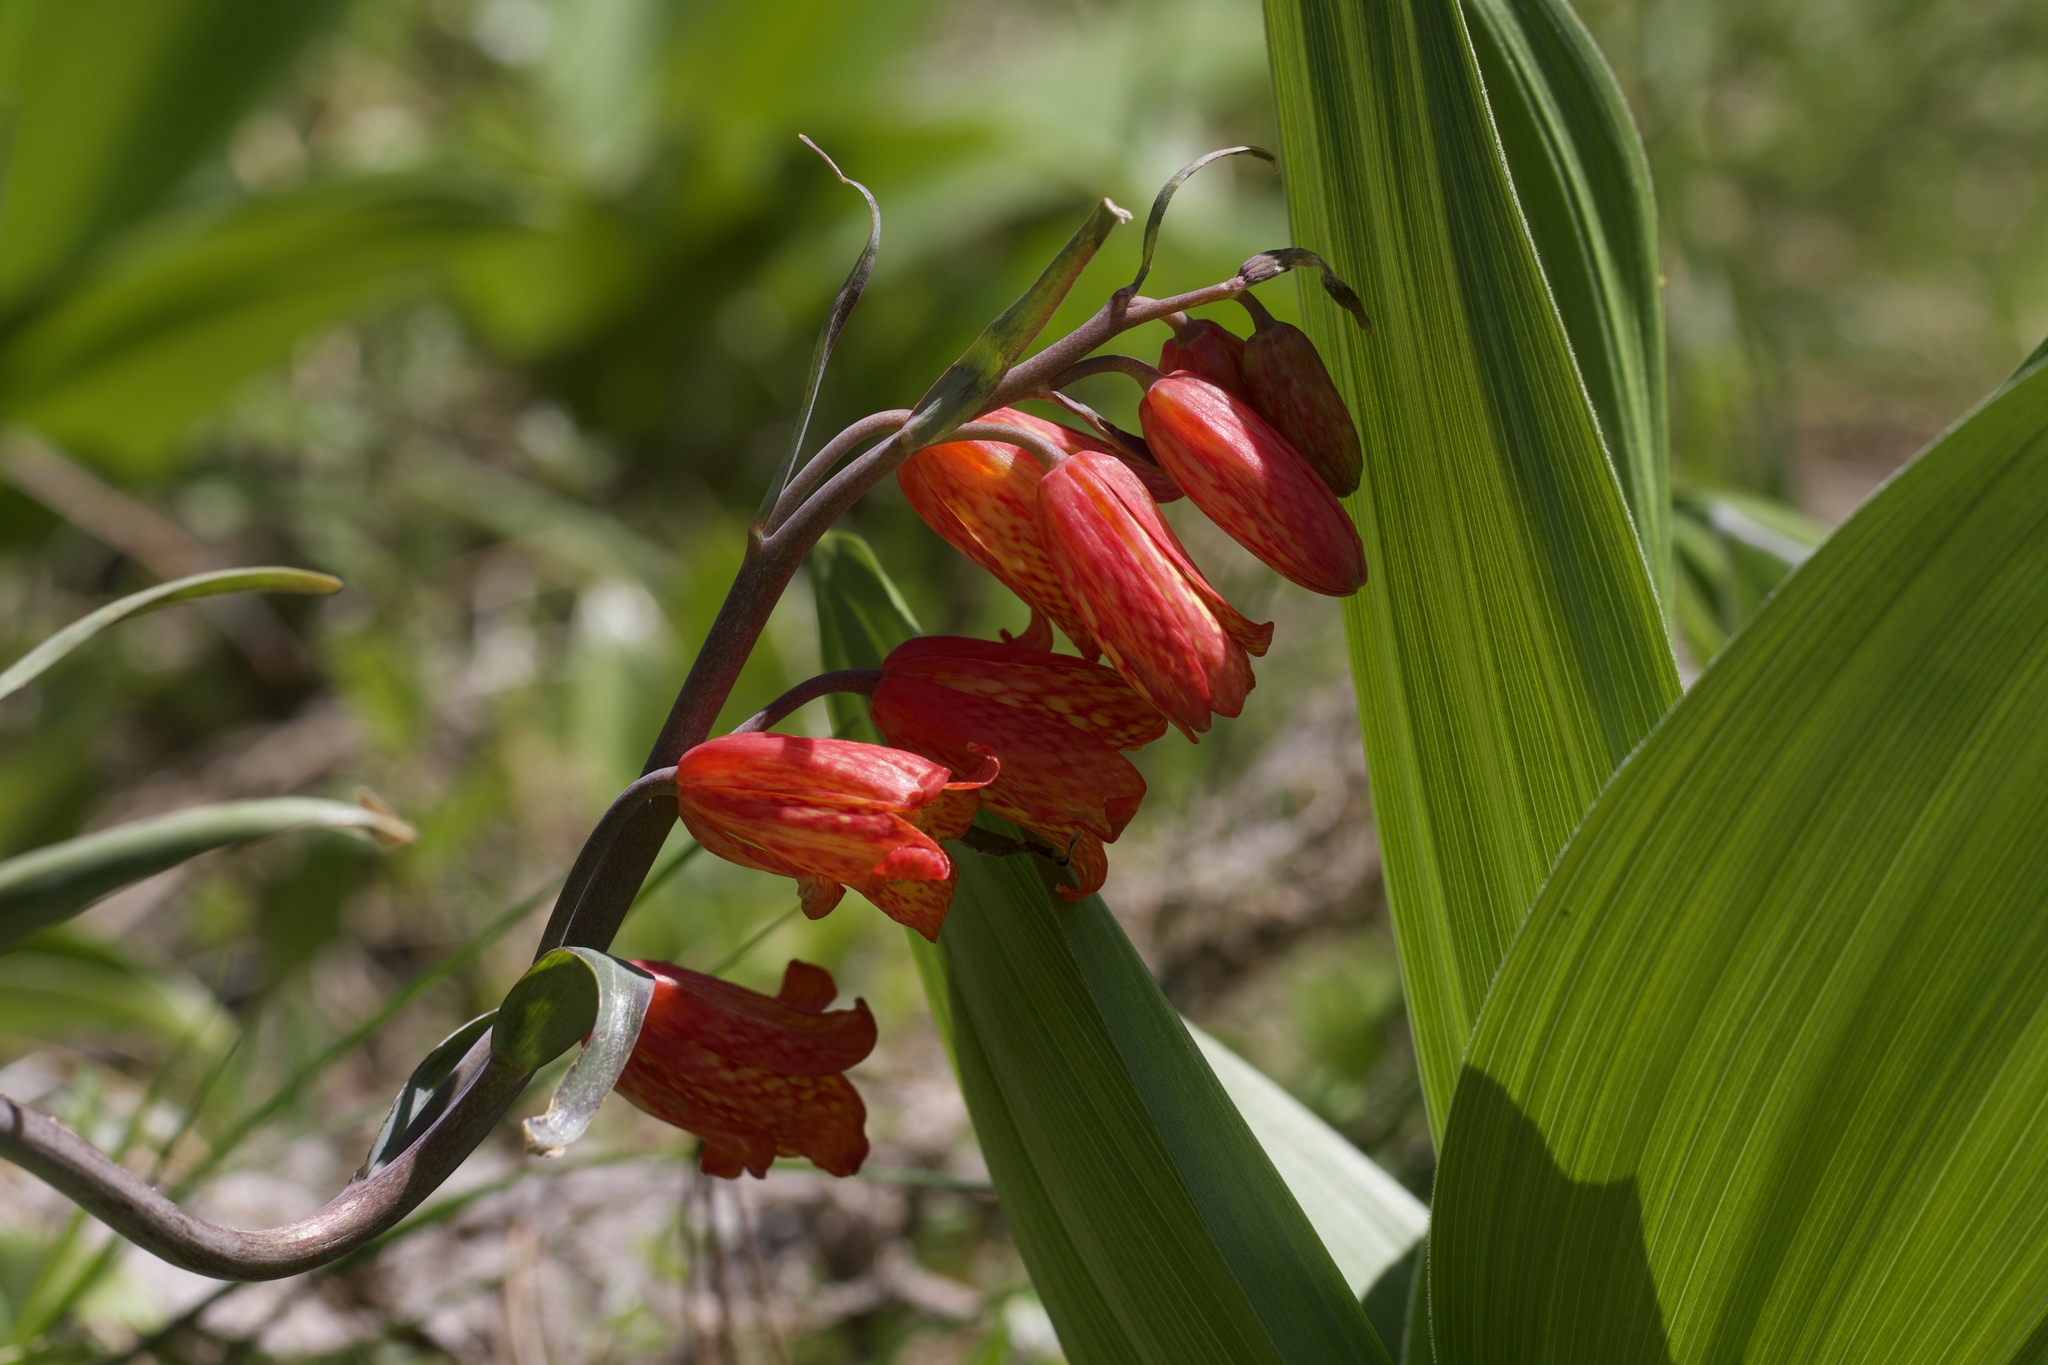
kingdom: Plantae
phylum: Tracheophyta
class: Liliopsida
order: Liliales
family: Liliaceae
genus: Fritillaria
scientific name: Fritillaria recurva
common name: Scarlet fritillary
